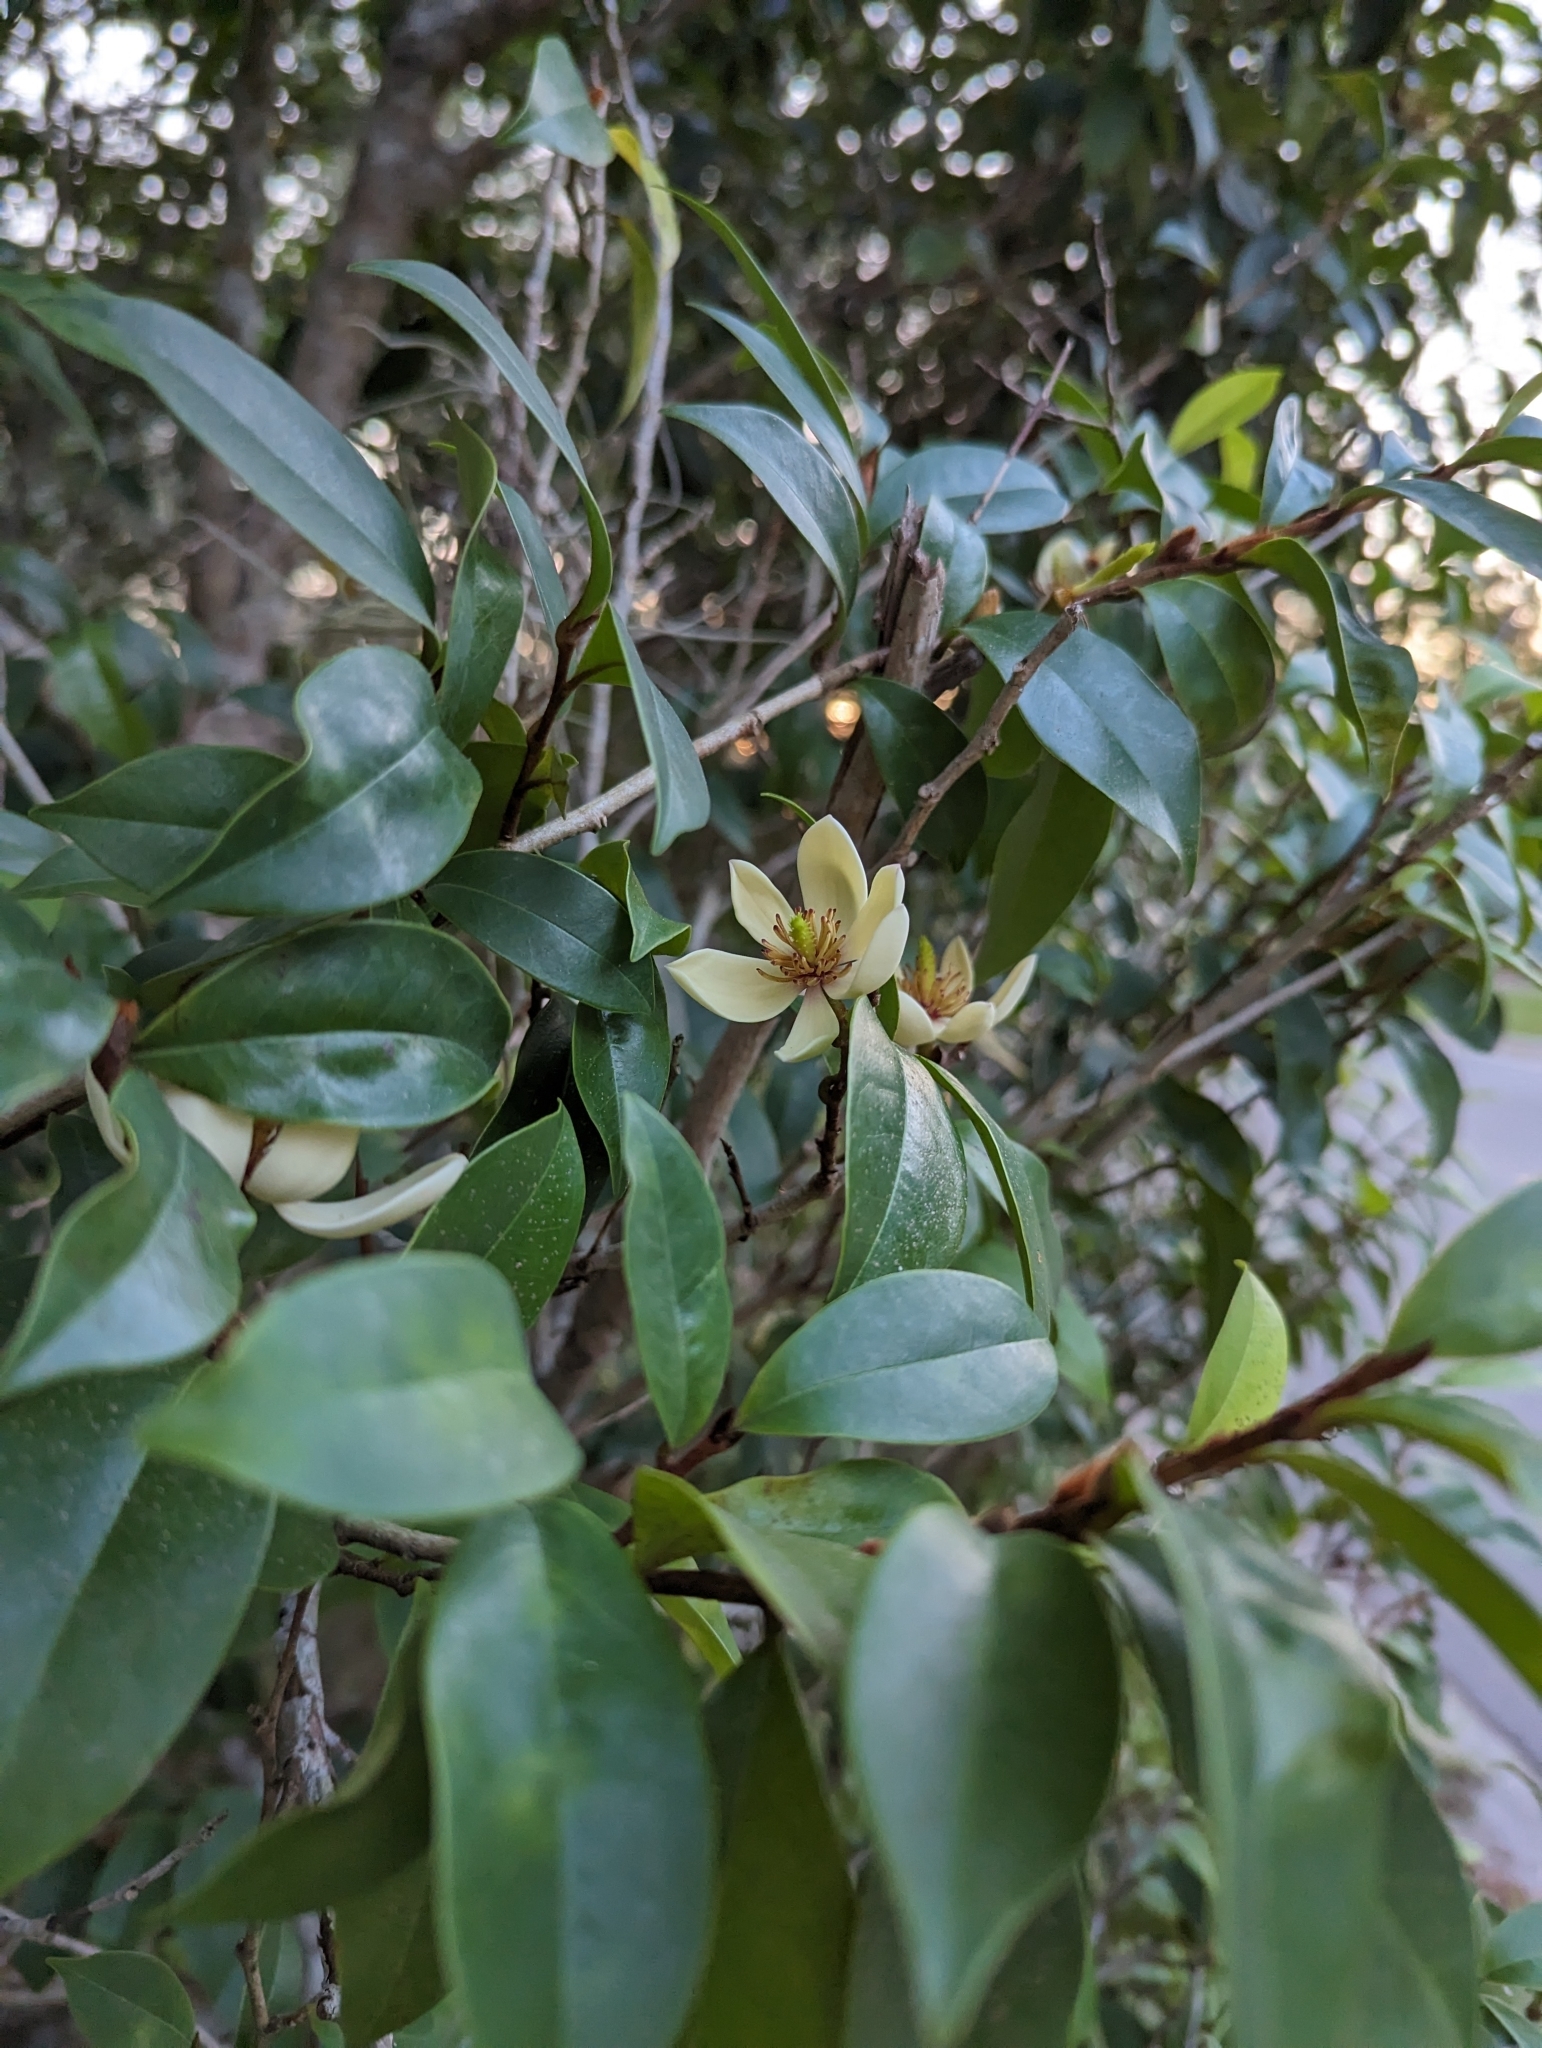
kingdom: Plantae
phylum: Tracheophyta
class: Magnoliopsida
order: Magnoliales
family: Magnoliaceae
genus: Magnolia
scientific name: Magnolia figo
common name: Banana shrub
